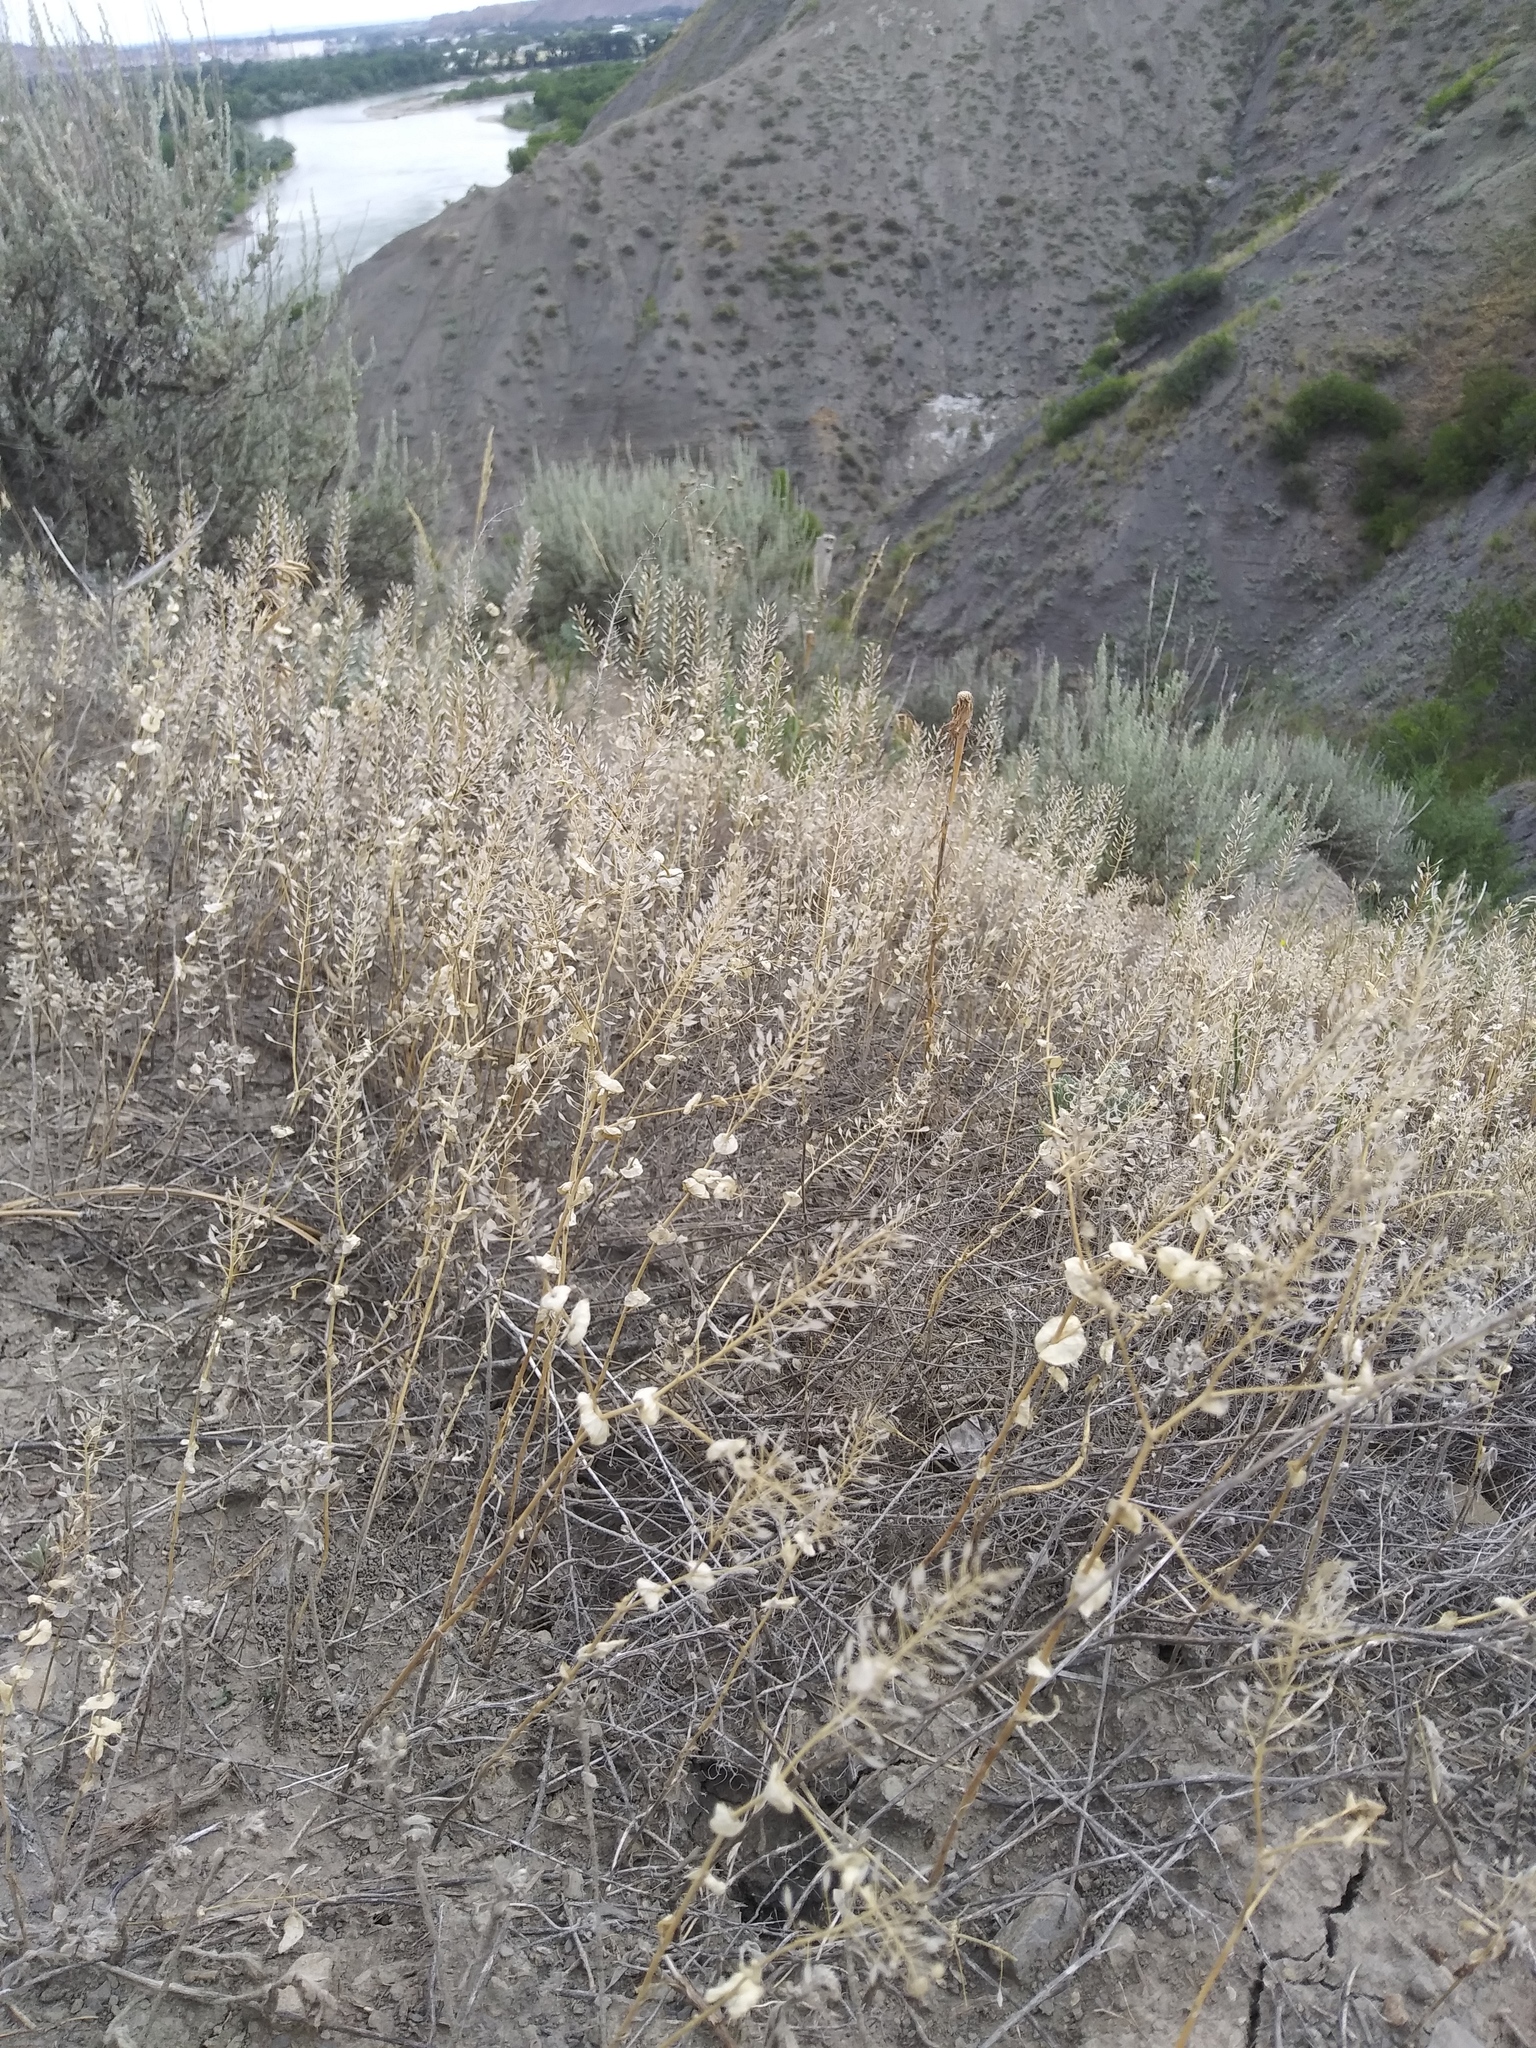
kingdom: Plantae
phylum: Tracheophyta
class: Magnoliopsida
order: Brassicales
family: Brassicaceae
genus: Lepidium
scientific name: Lepidium perfoliatum
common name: Perfoliate pepperwort
